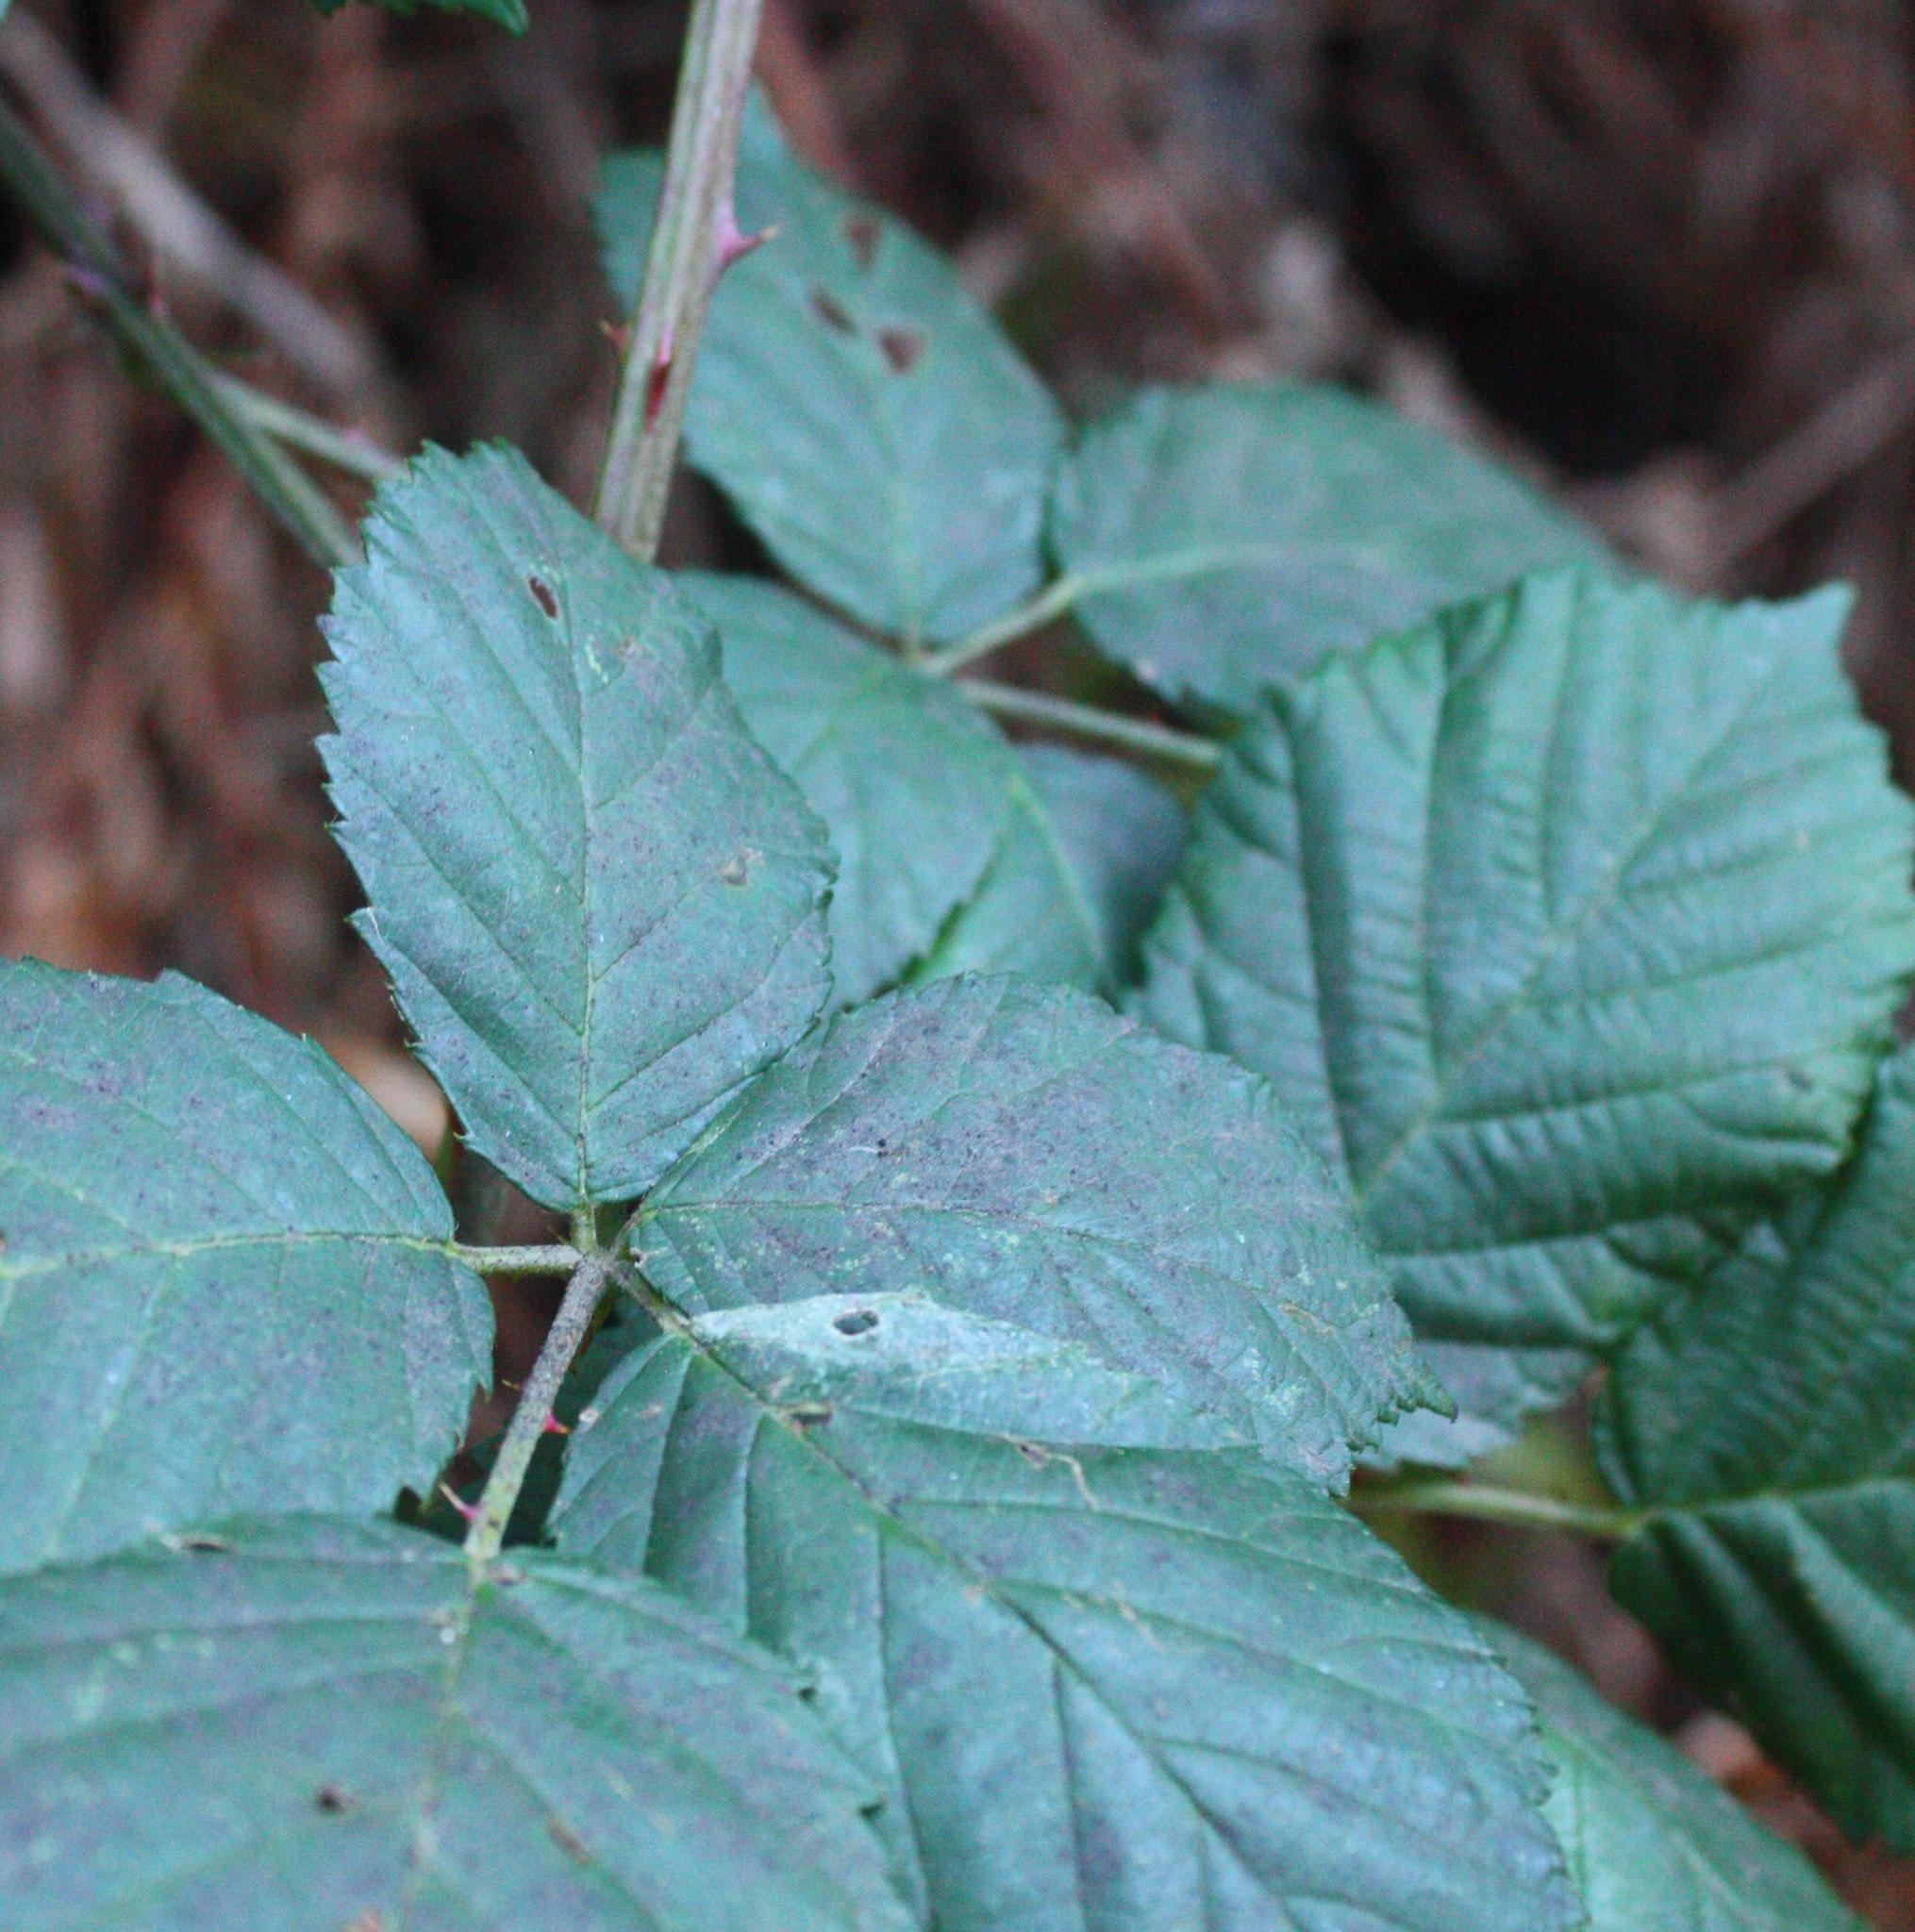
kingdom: Plantae
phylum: Tracheophyta
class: Magnoliopsida
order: Rosales
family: Rosaceae
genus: Rubus
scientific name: Rubus armeniacus
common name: Himalayan blackberry
